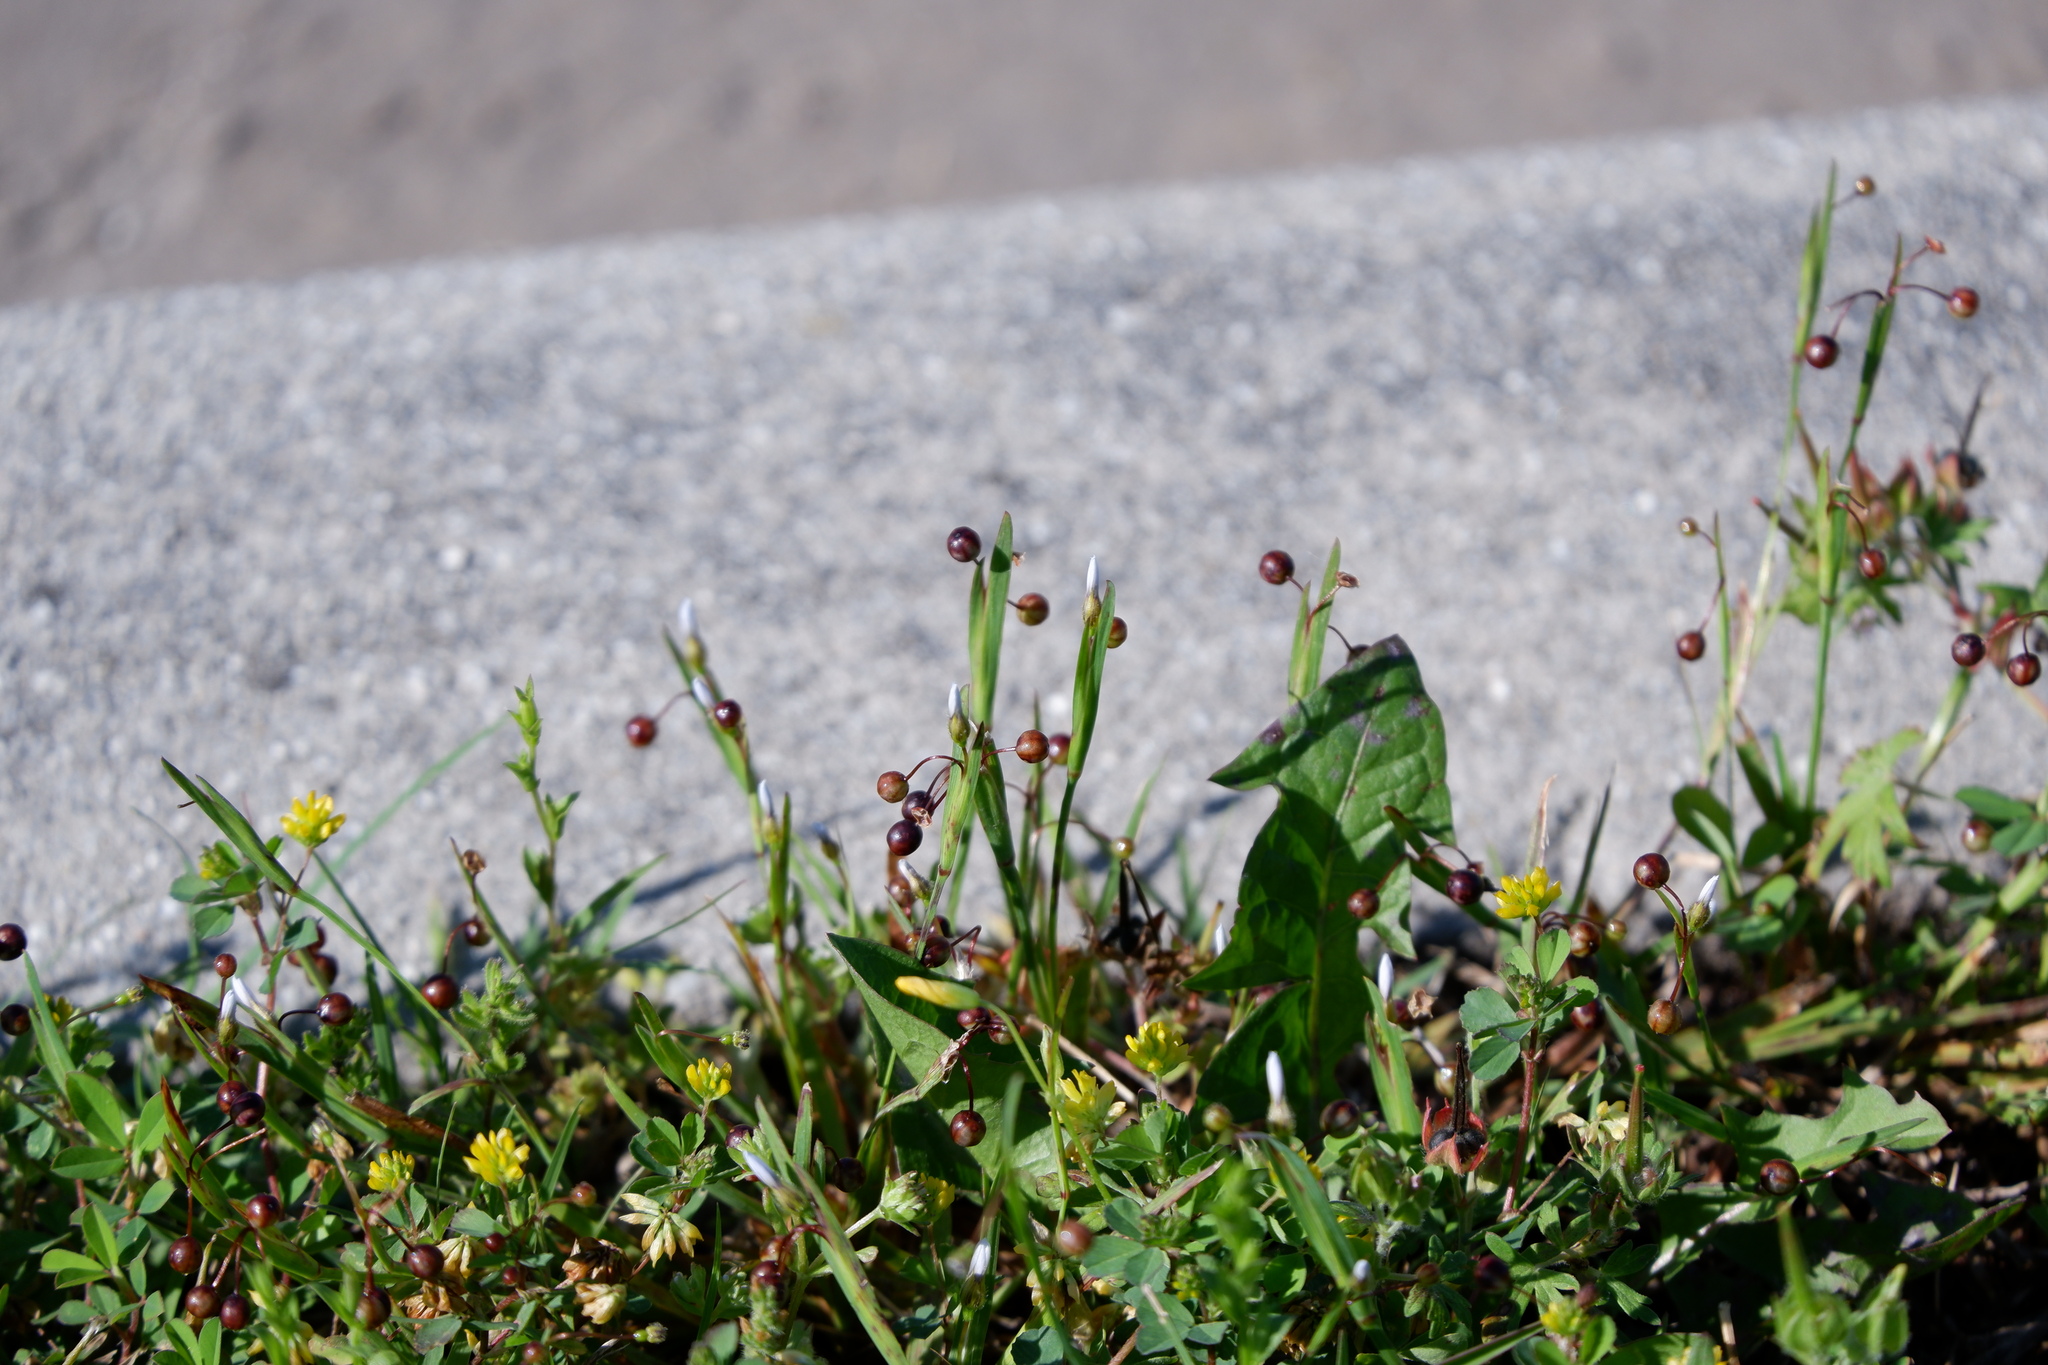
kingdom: Plantae
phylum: Tracheophyta
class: Liliopsida
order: Asparagales
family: Iridaceae
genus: Sisyrinchium
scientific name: Sisyrinchium micranthum
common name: Bermuda pigroot
